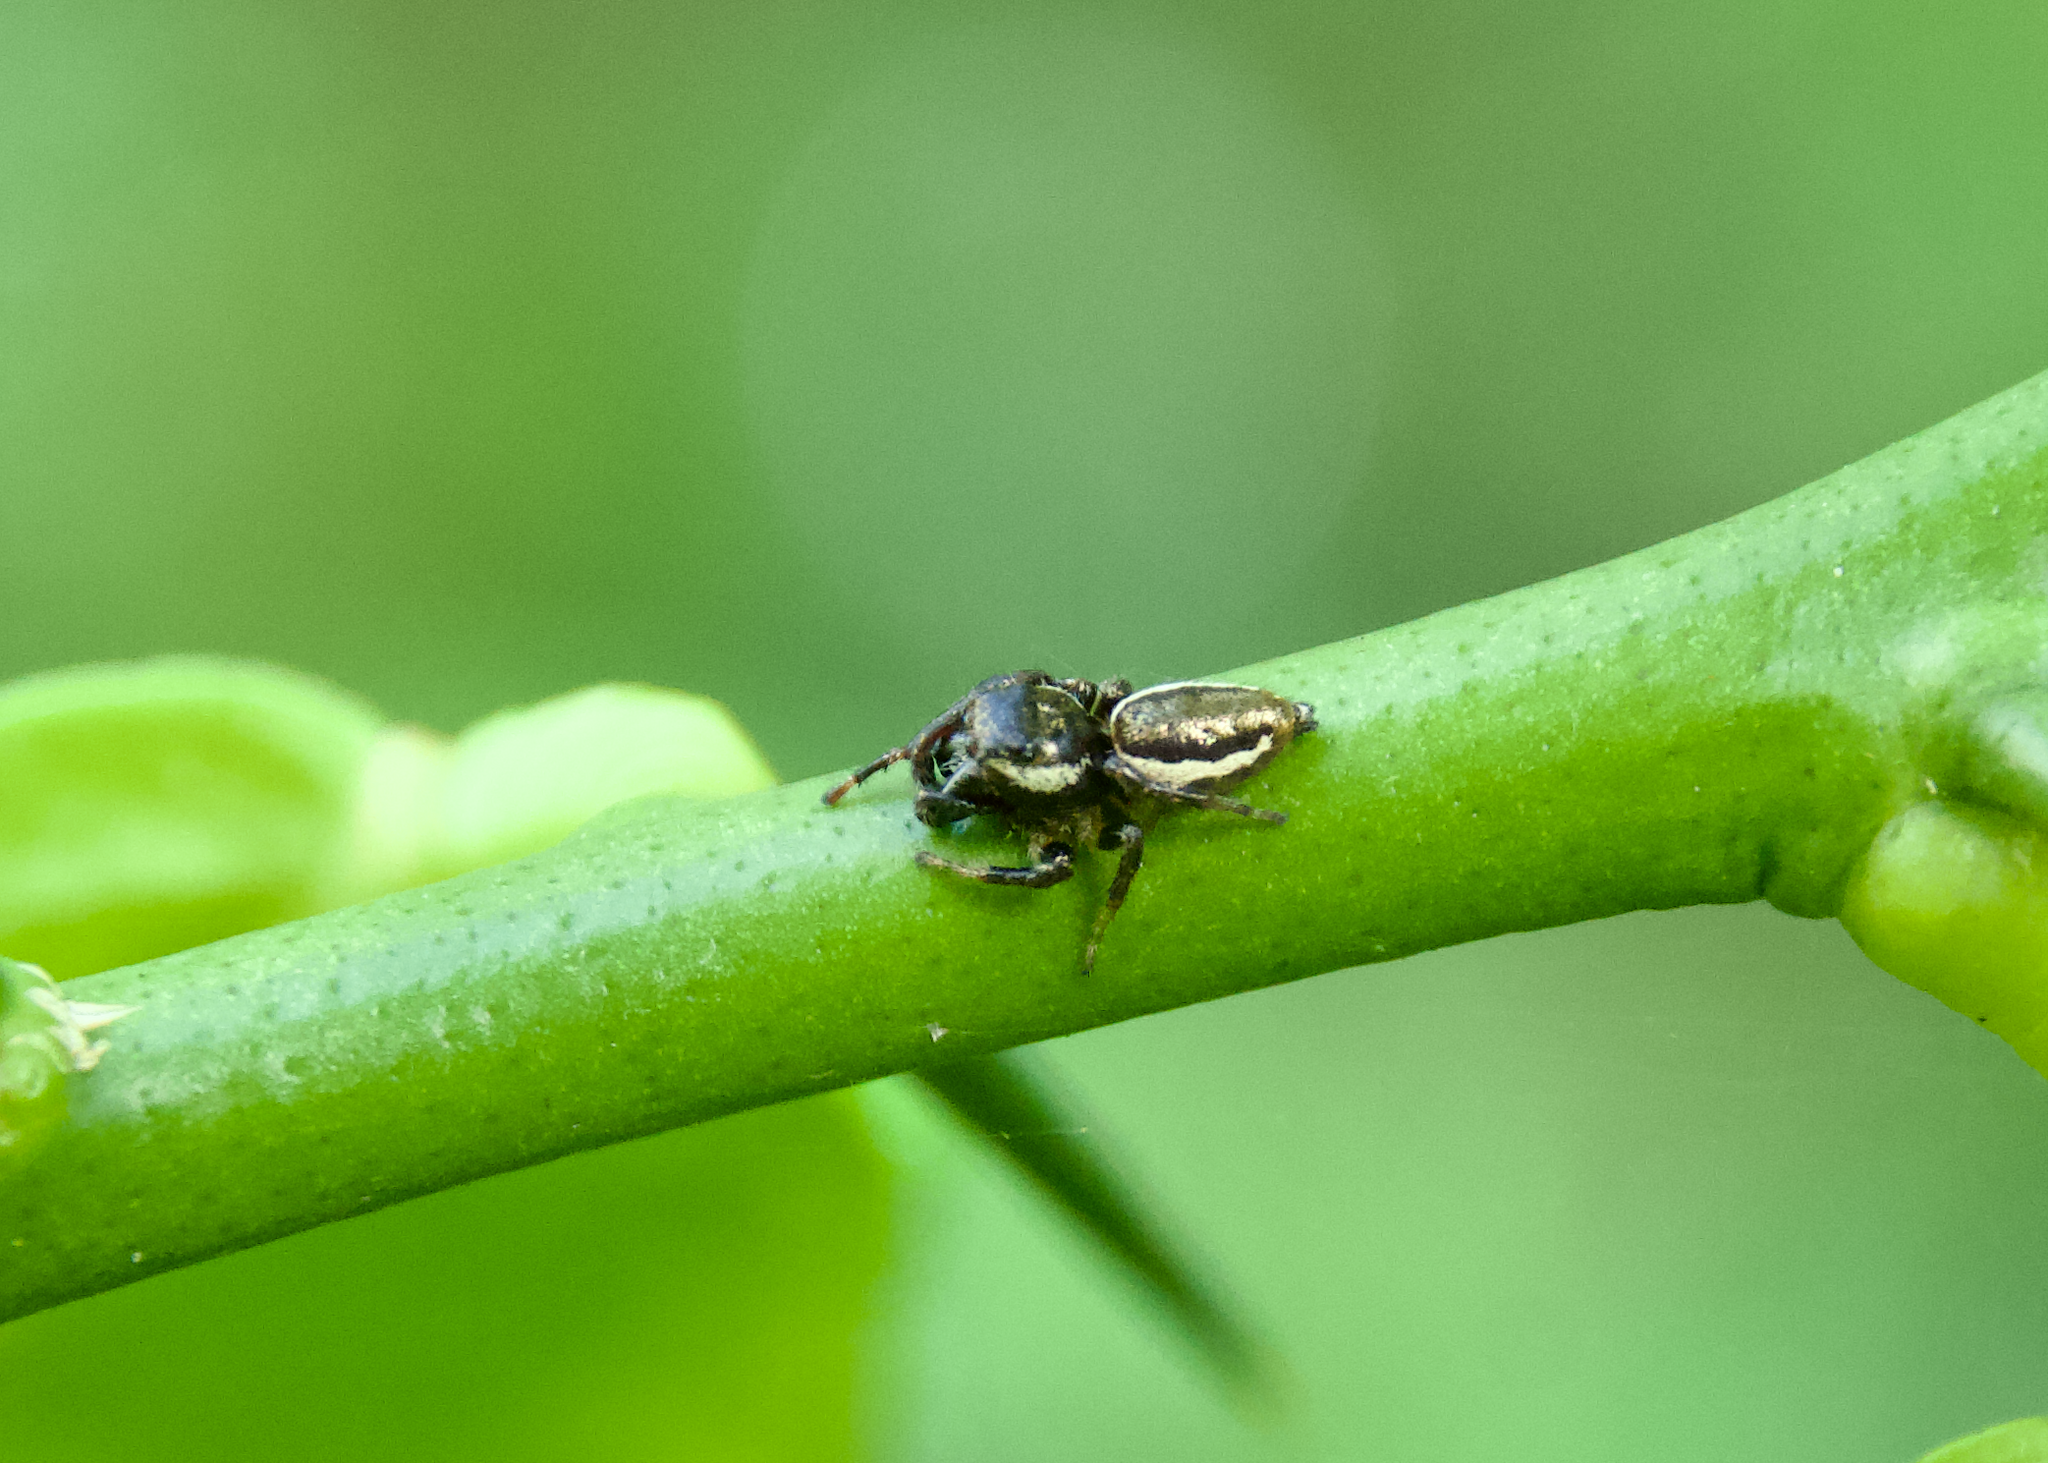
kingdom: Animalia
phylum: Arthropoda
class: Arachnida
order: Araneae
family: Salticidae
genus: Eris
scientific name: Eris militaris
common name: Bronze jumper
